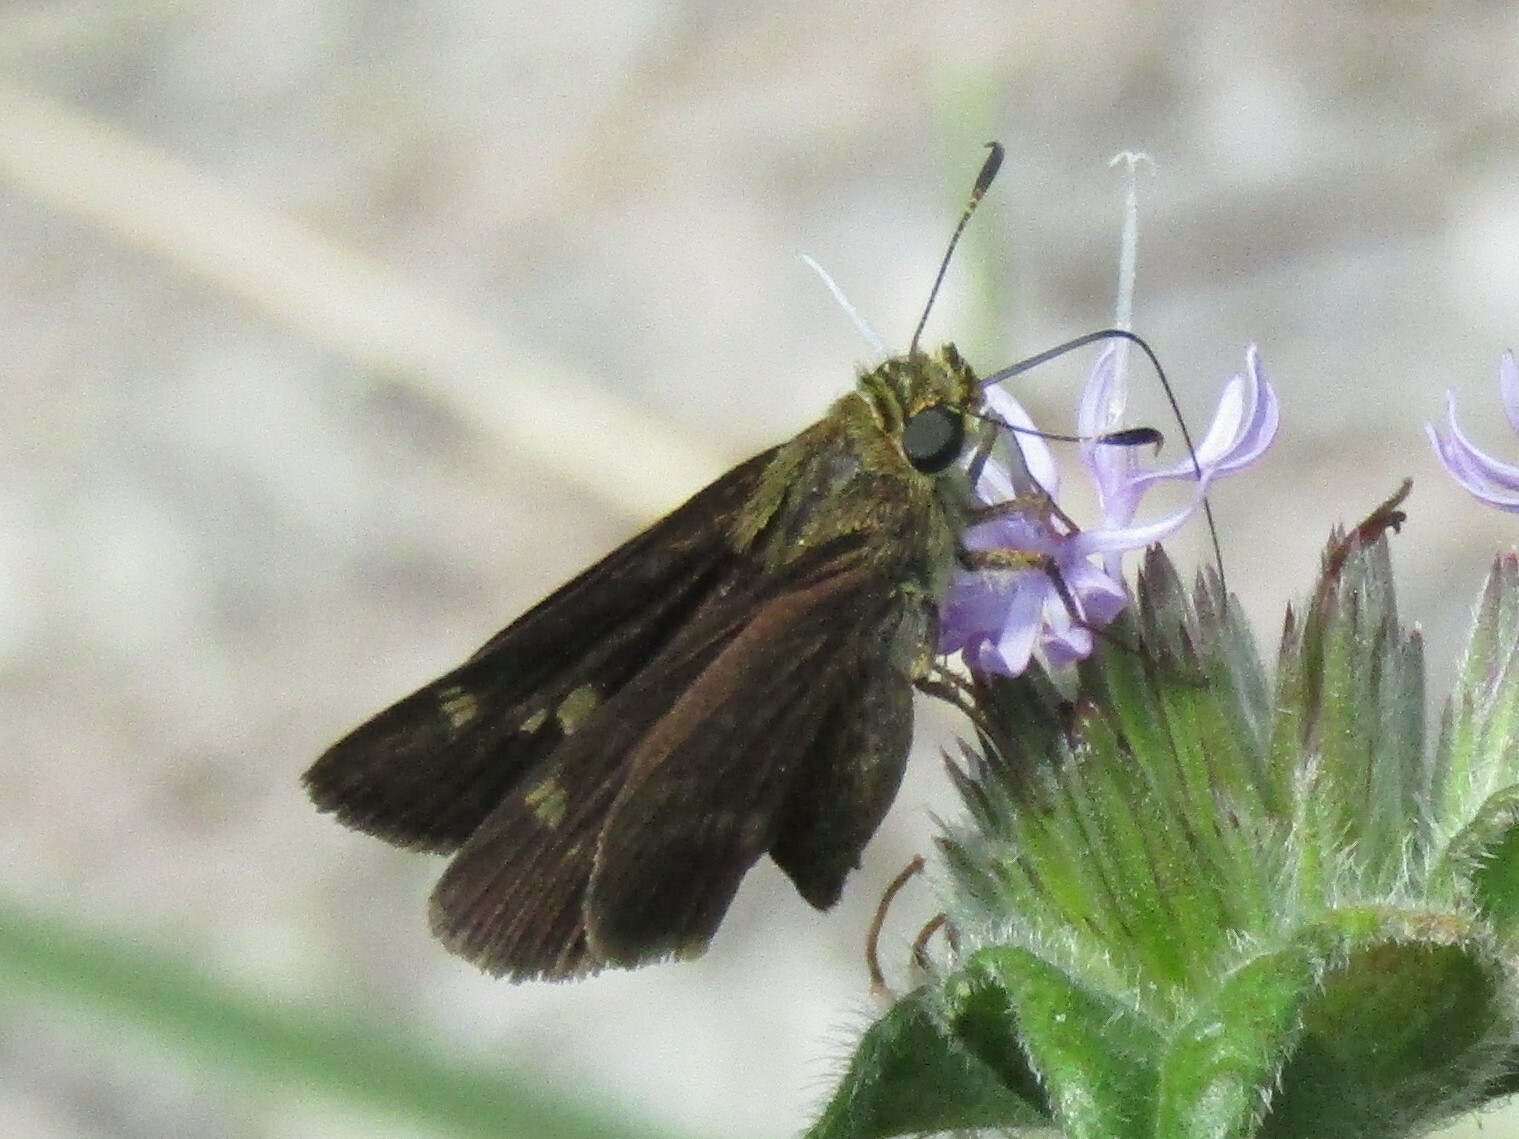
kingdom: Animalia
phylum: Arthropoda
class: Insecta
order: Lepidoptera
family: Hesperiidae
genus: Vernia
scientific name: Vernia verna
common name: Little glassywing
